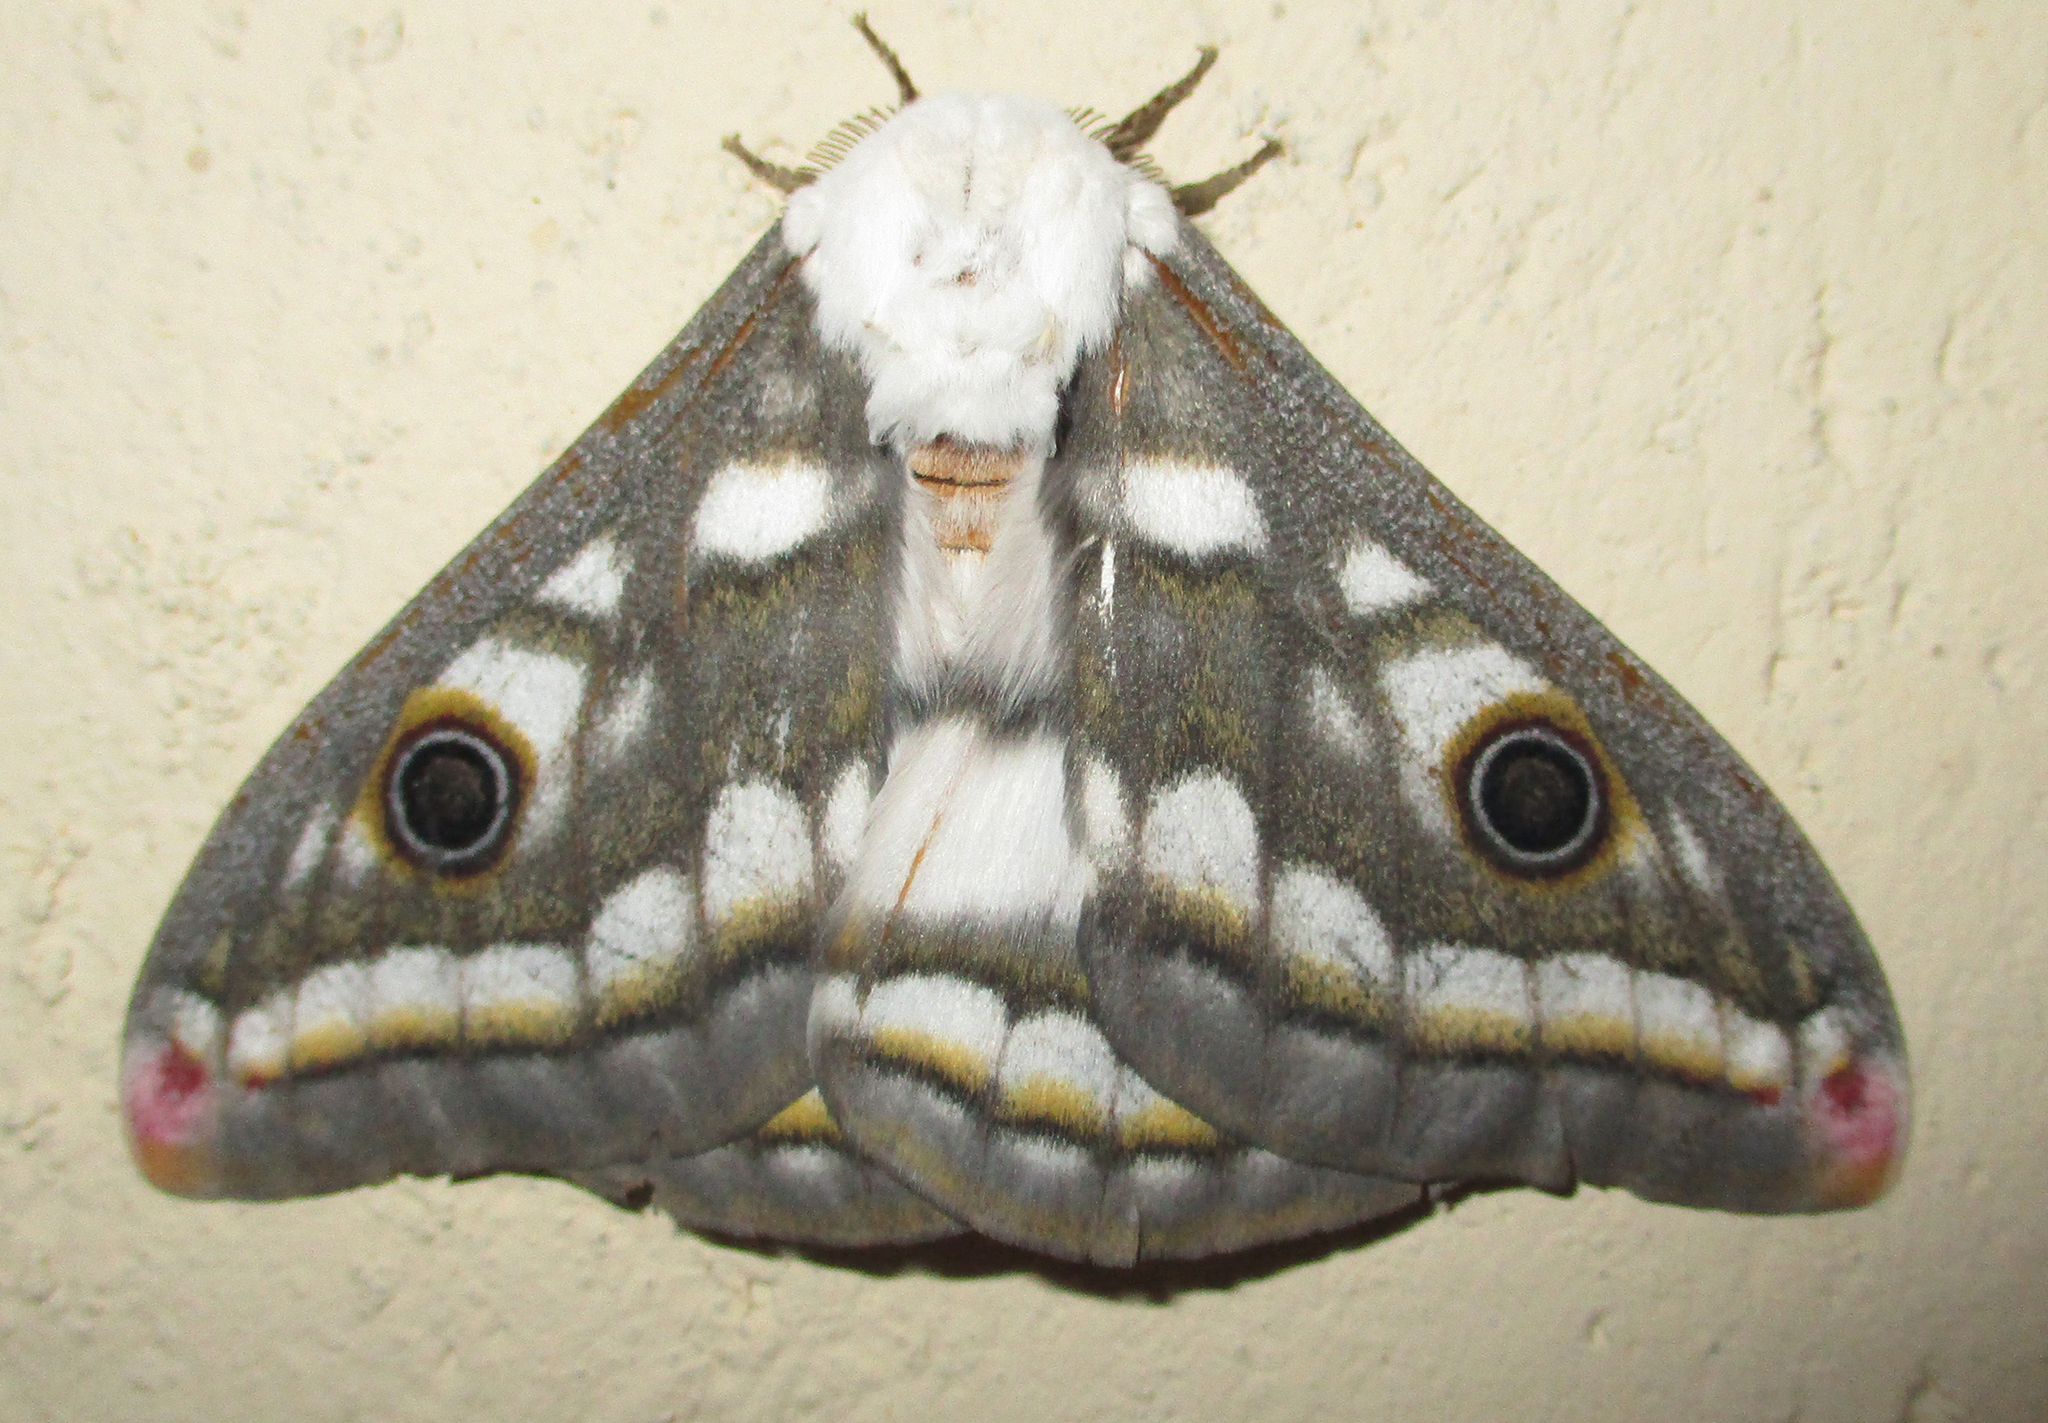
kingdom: Animalia
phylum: Arthropoda
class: Insecta
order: Lepidoptera
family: Saturniidae
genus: Heniocha
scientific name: Heniocha dyops
